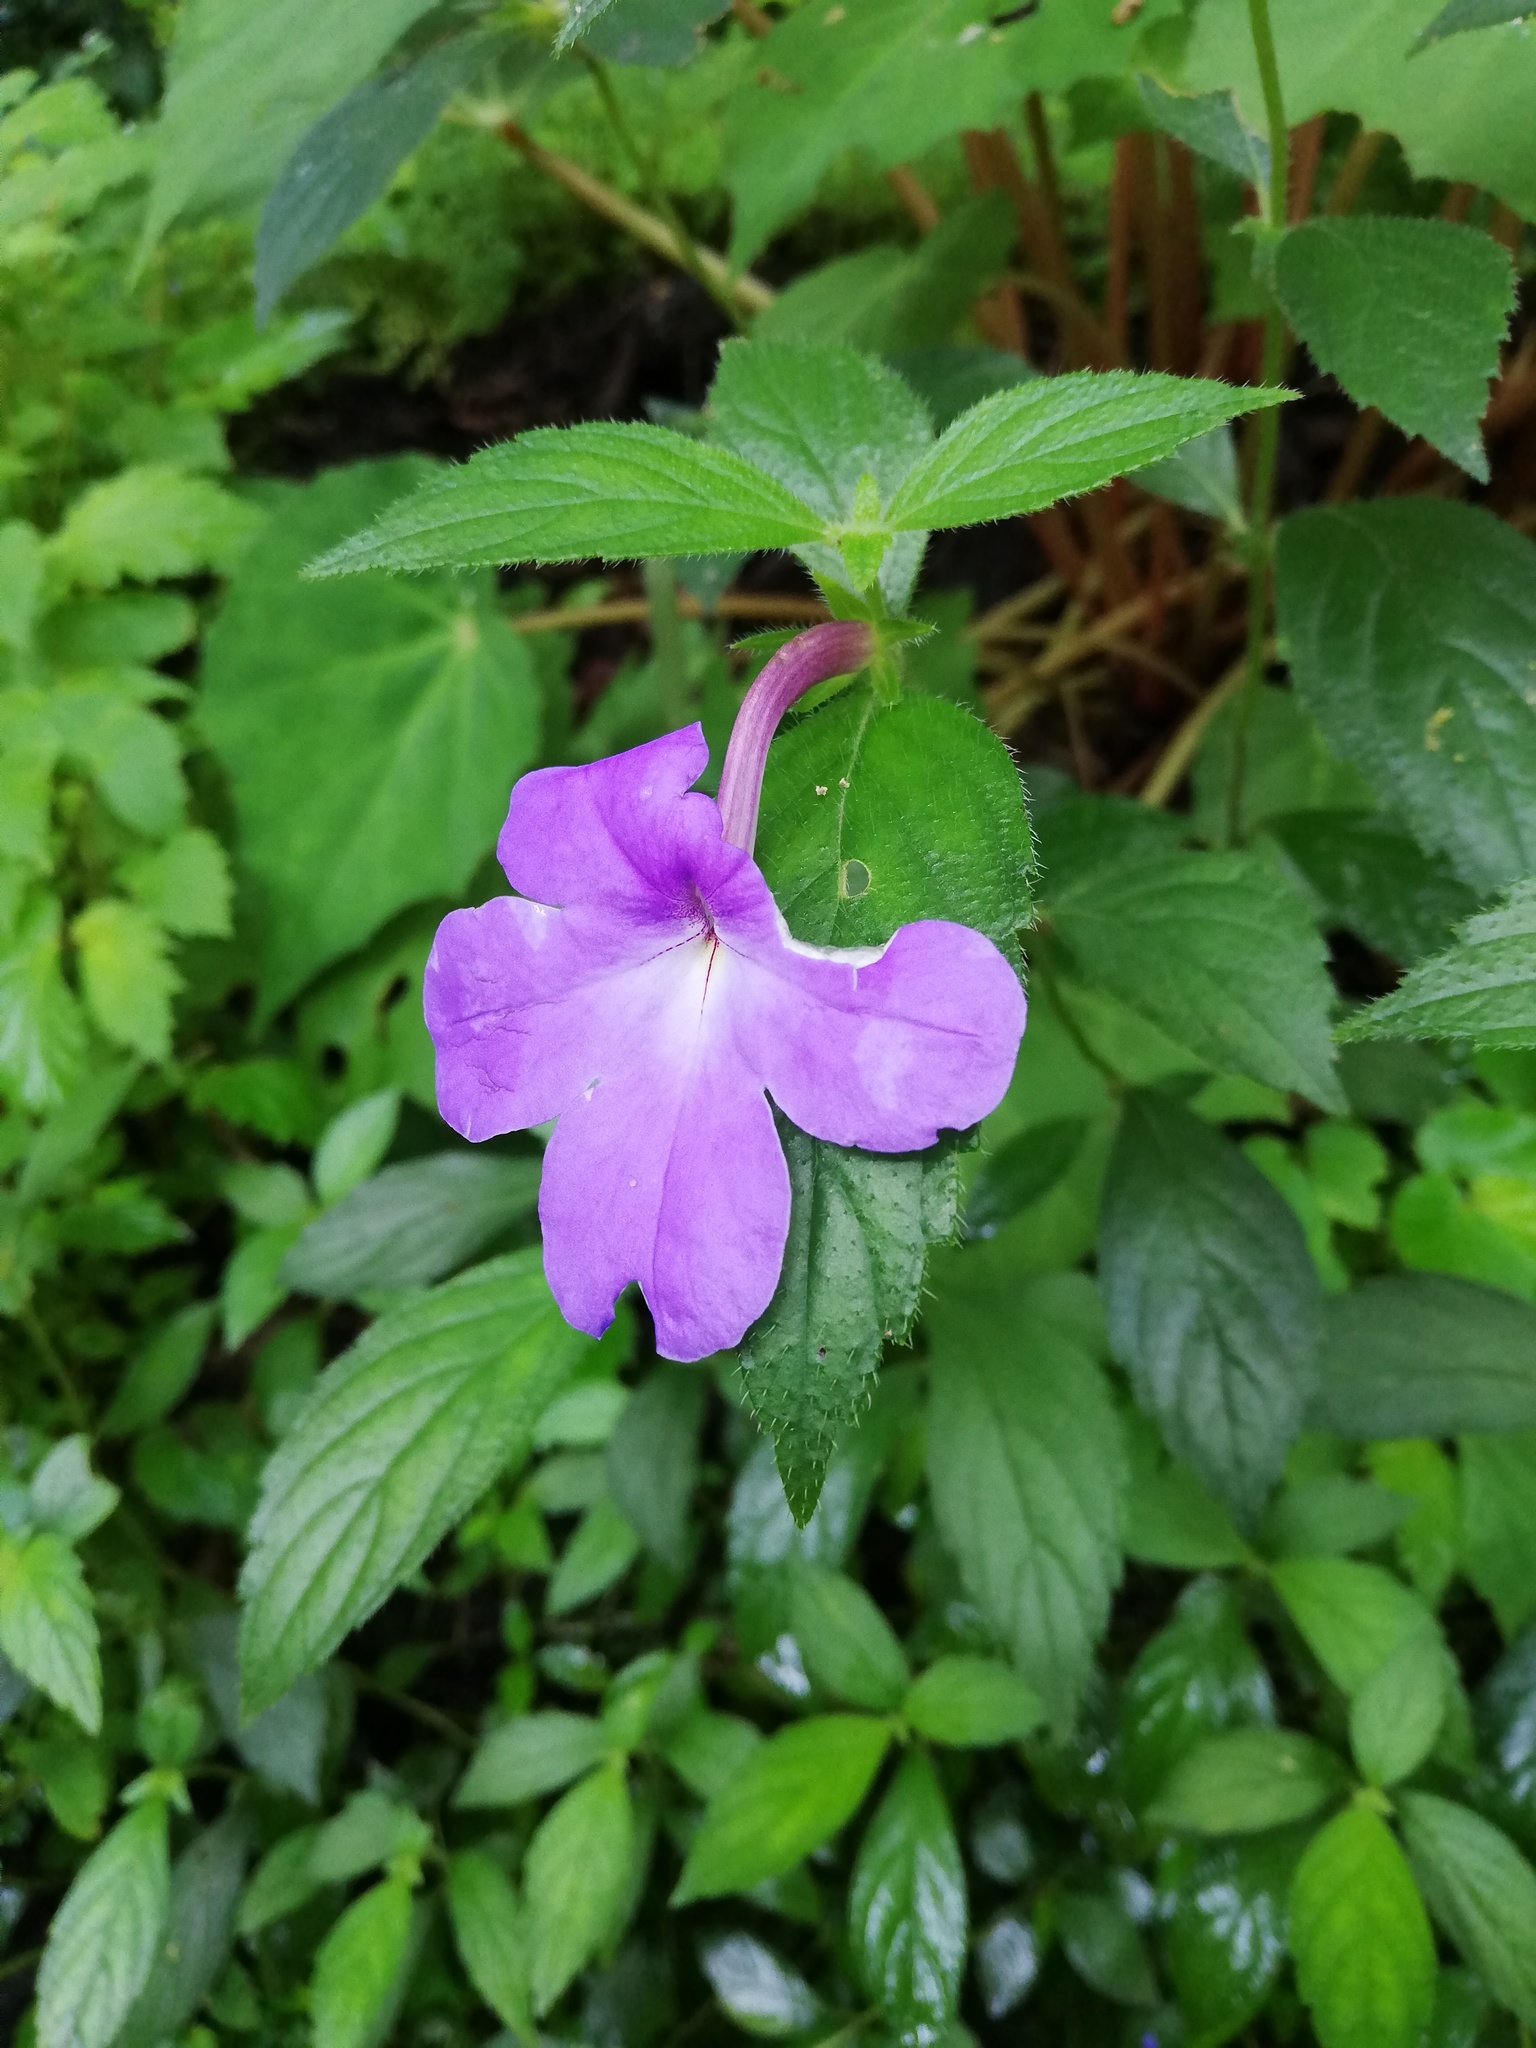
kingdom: Plantae
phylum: Tracheophyta
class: Magnoliopsida
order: Lamiales
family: Gesneriaceae
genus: Achimenes
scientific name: Achimenes longiflora
